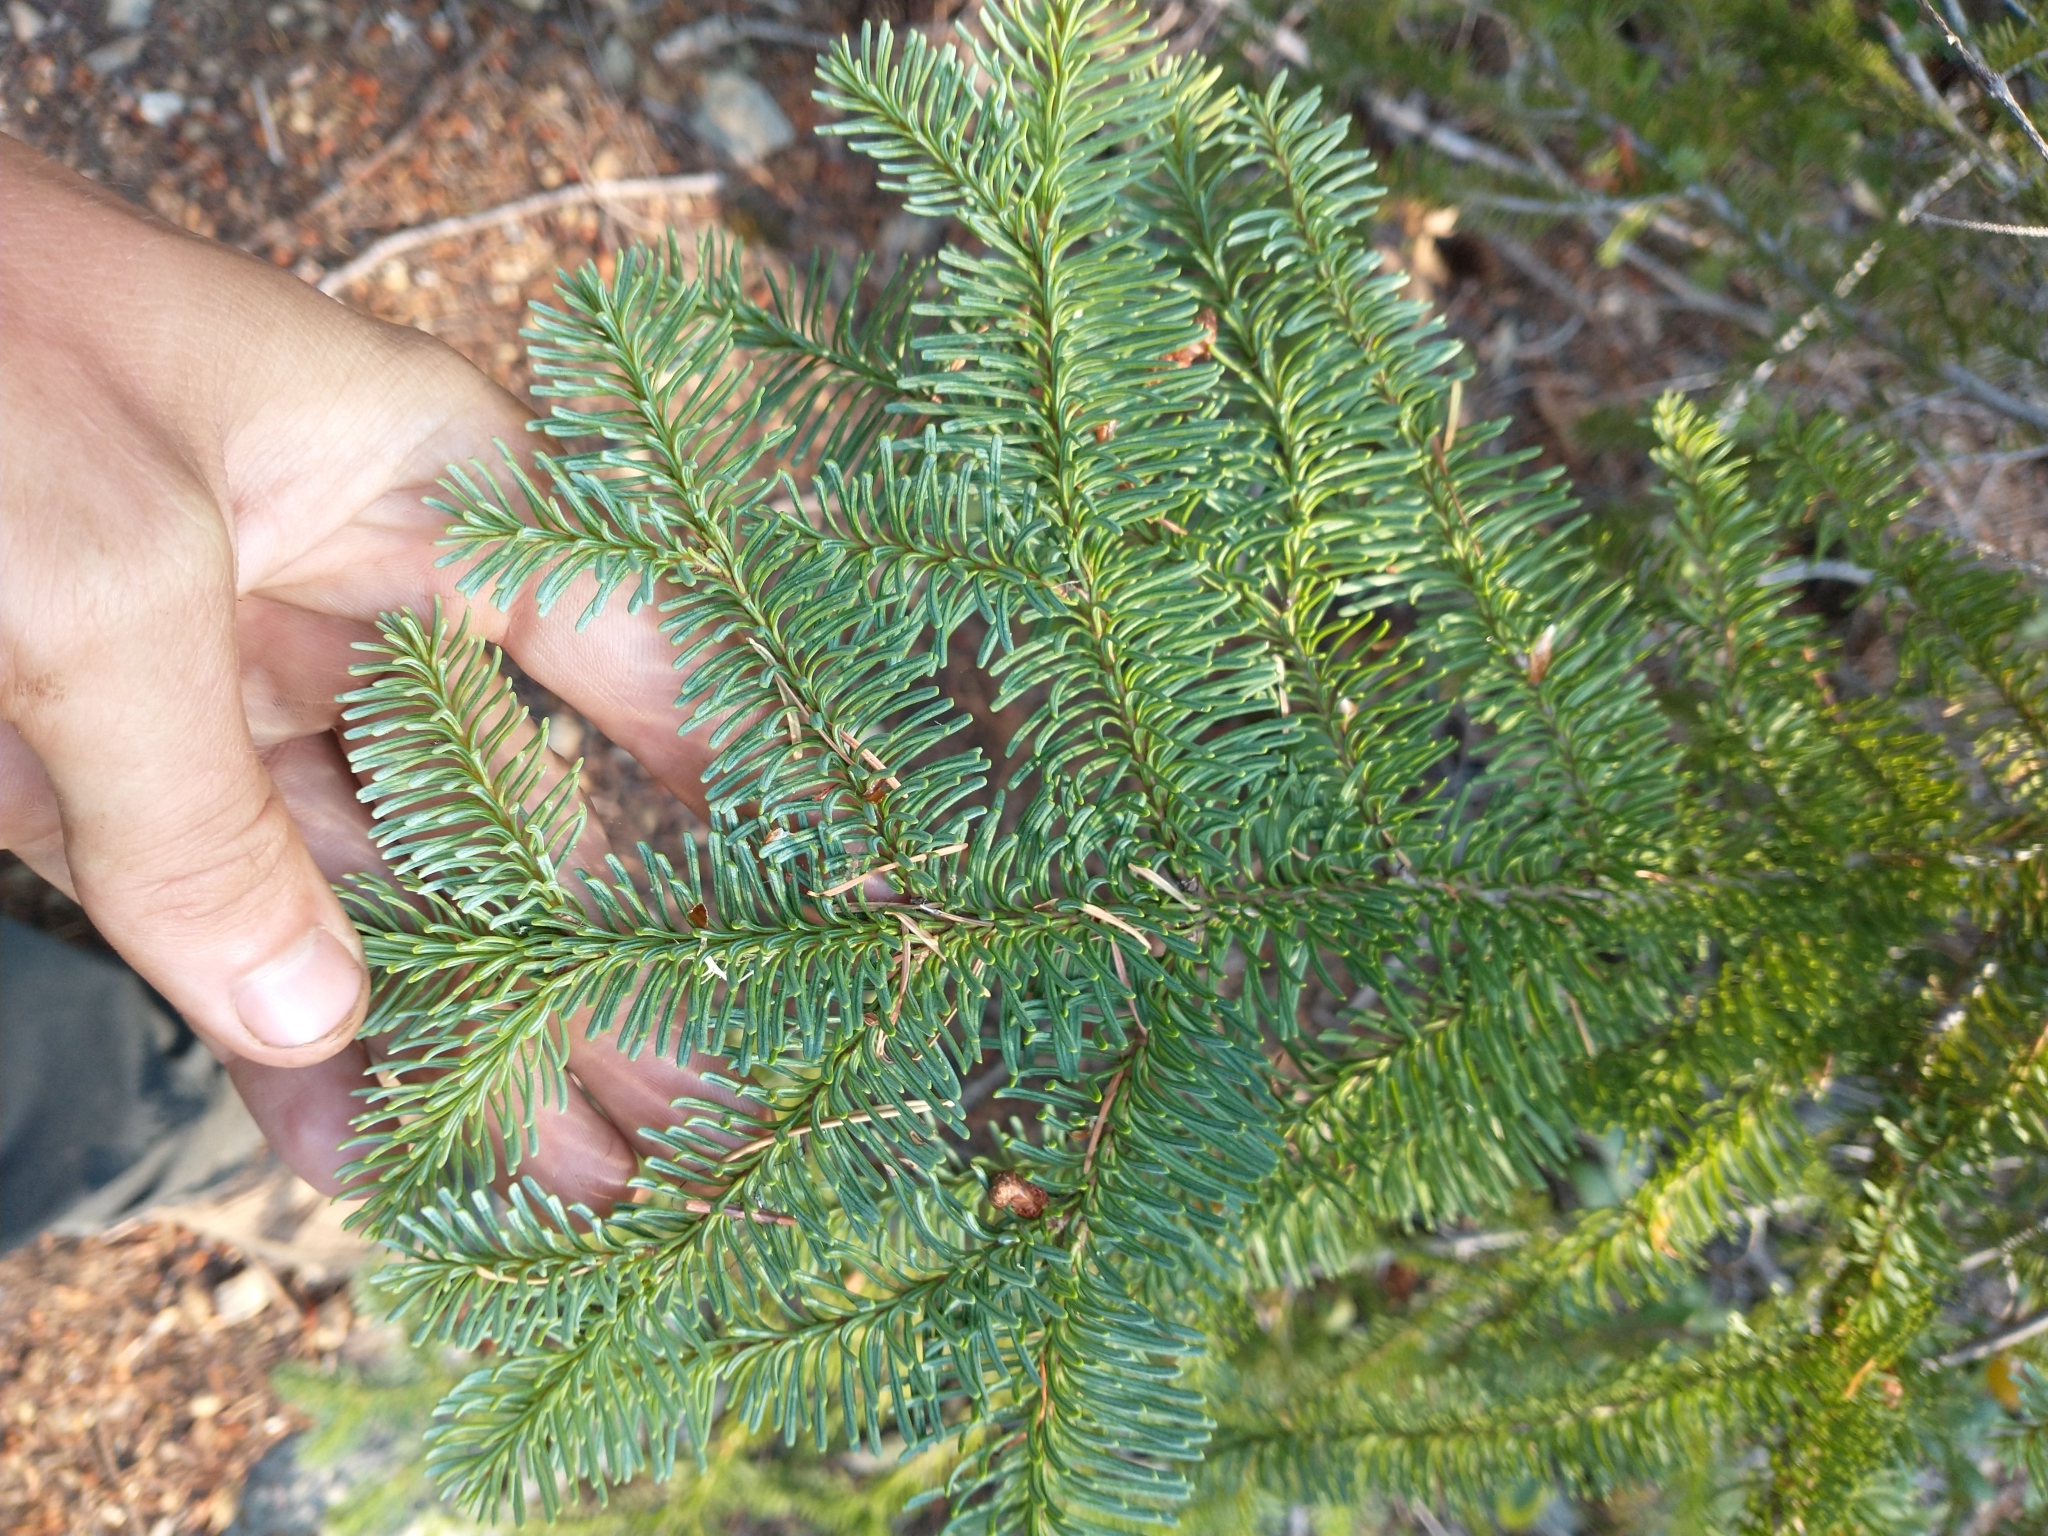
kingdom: Plantae
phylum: Tracheophyta
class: Pinopsida
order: Pinales
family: Pinaceae
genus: Abies
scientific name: Abies procera
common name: Noble fir
